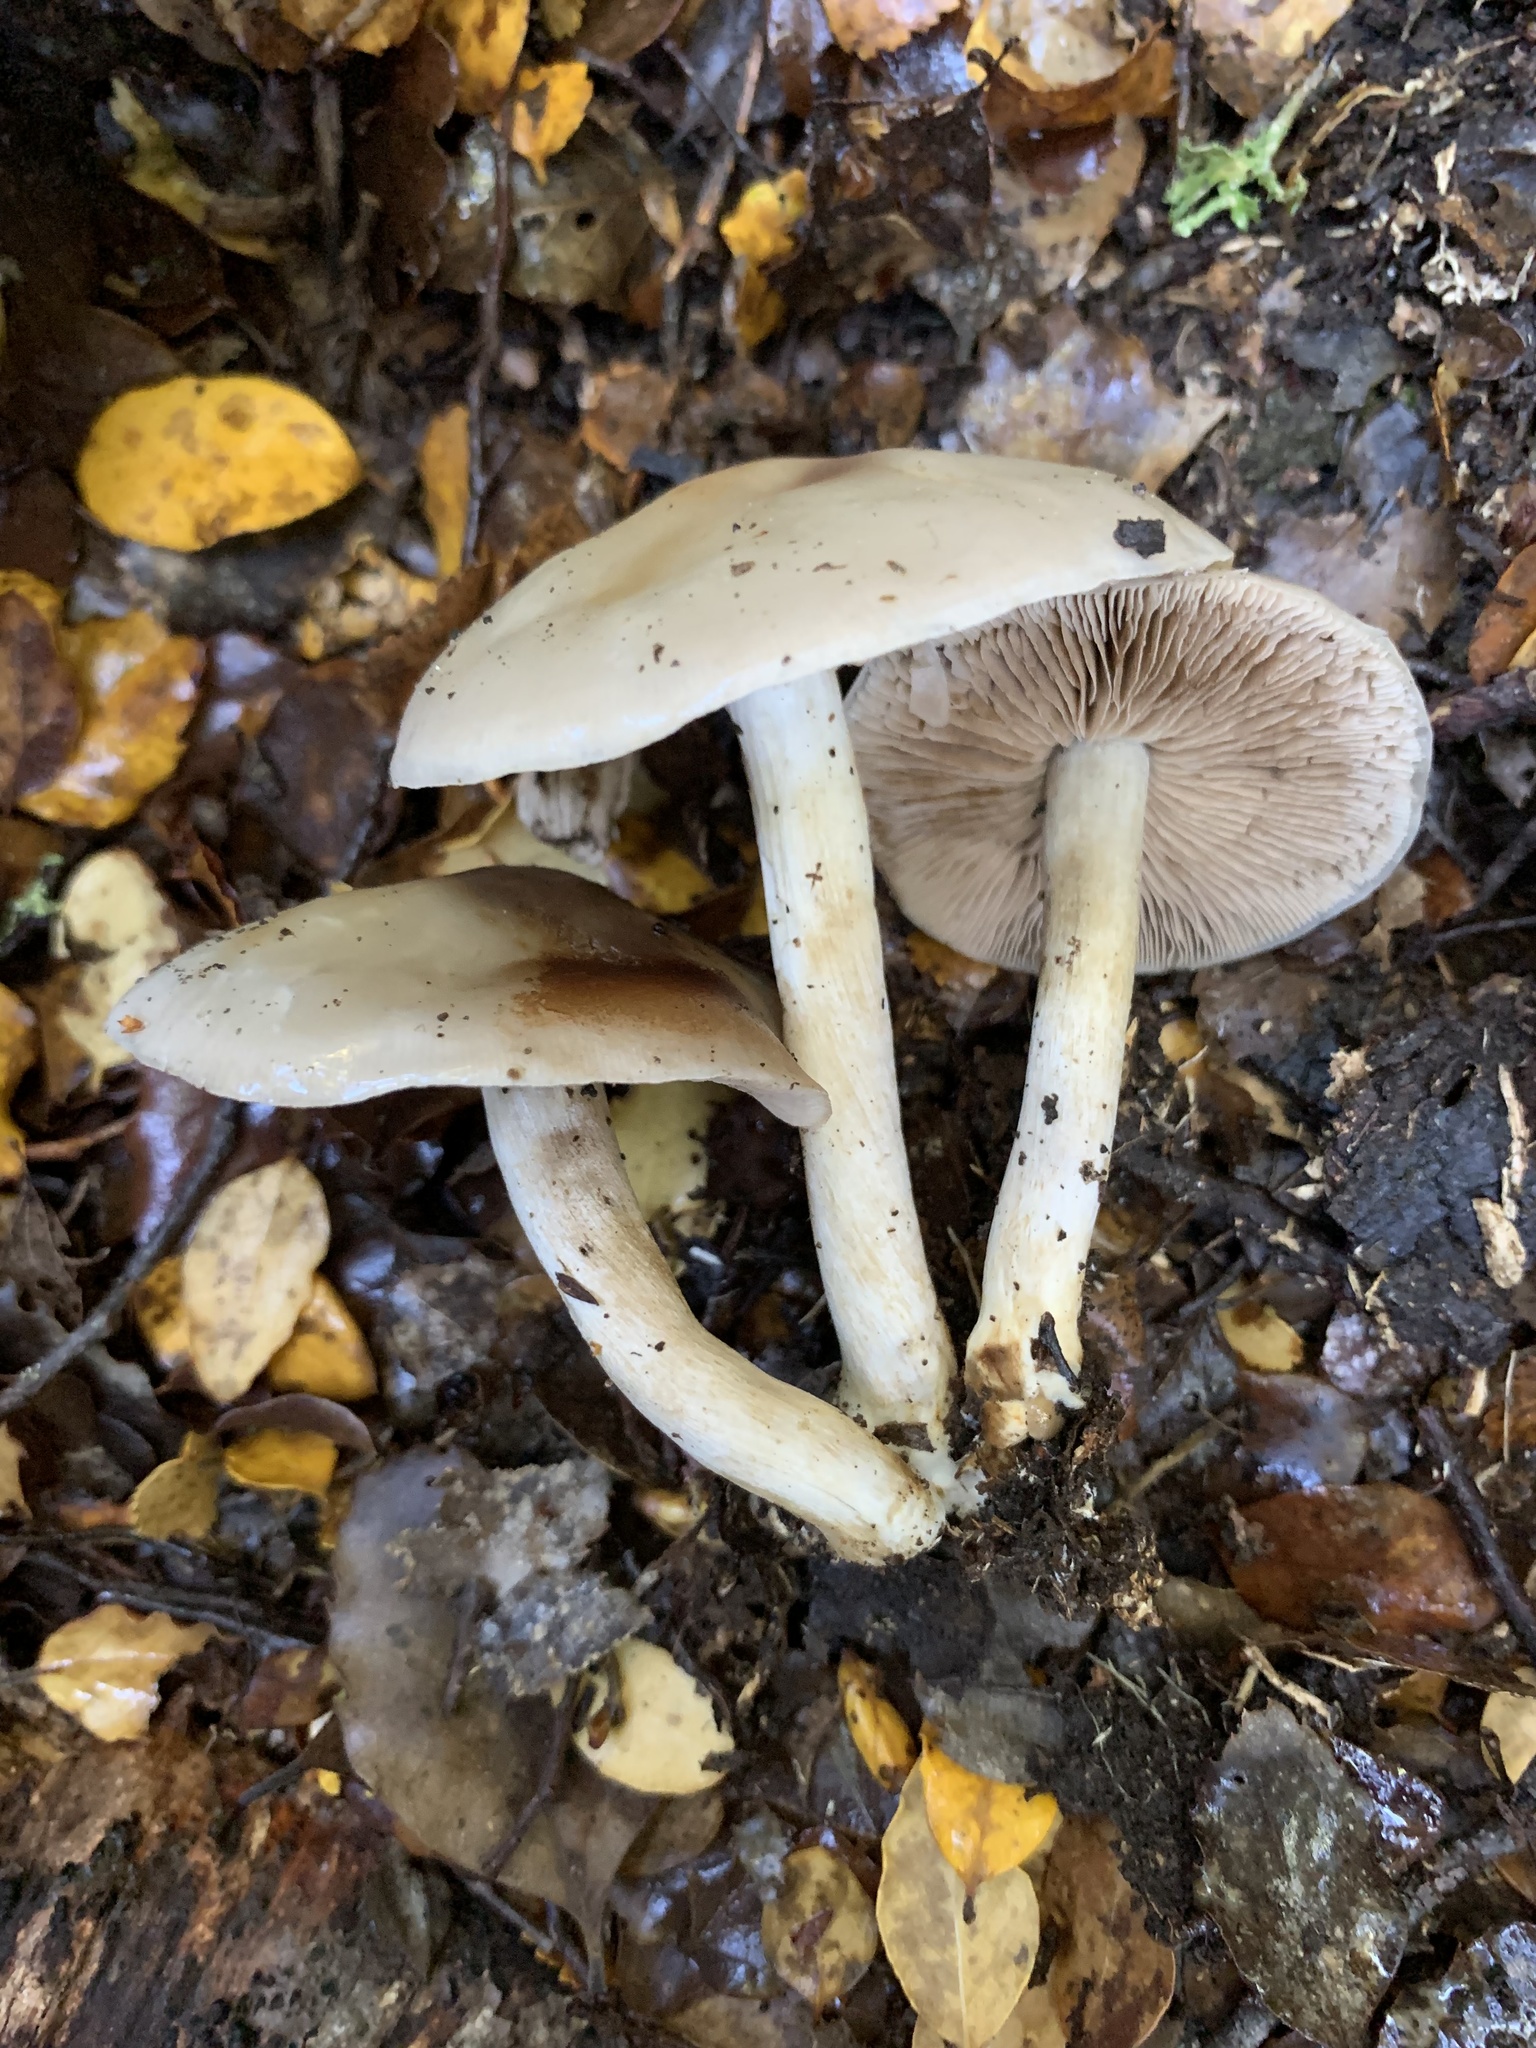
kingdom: Fungi
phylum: Basidiomycota
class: Agaricomycetes
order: Agaricales
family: Hymenogastraceae
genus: Psathyloma
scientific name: Psathyloma leucocarpum
